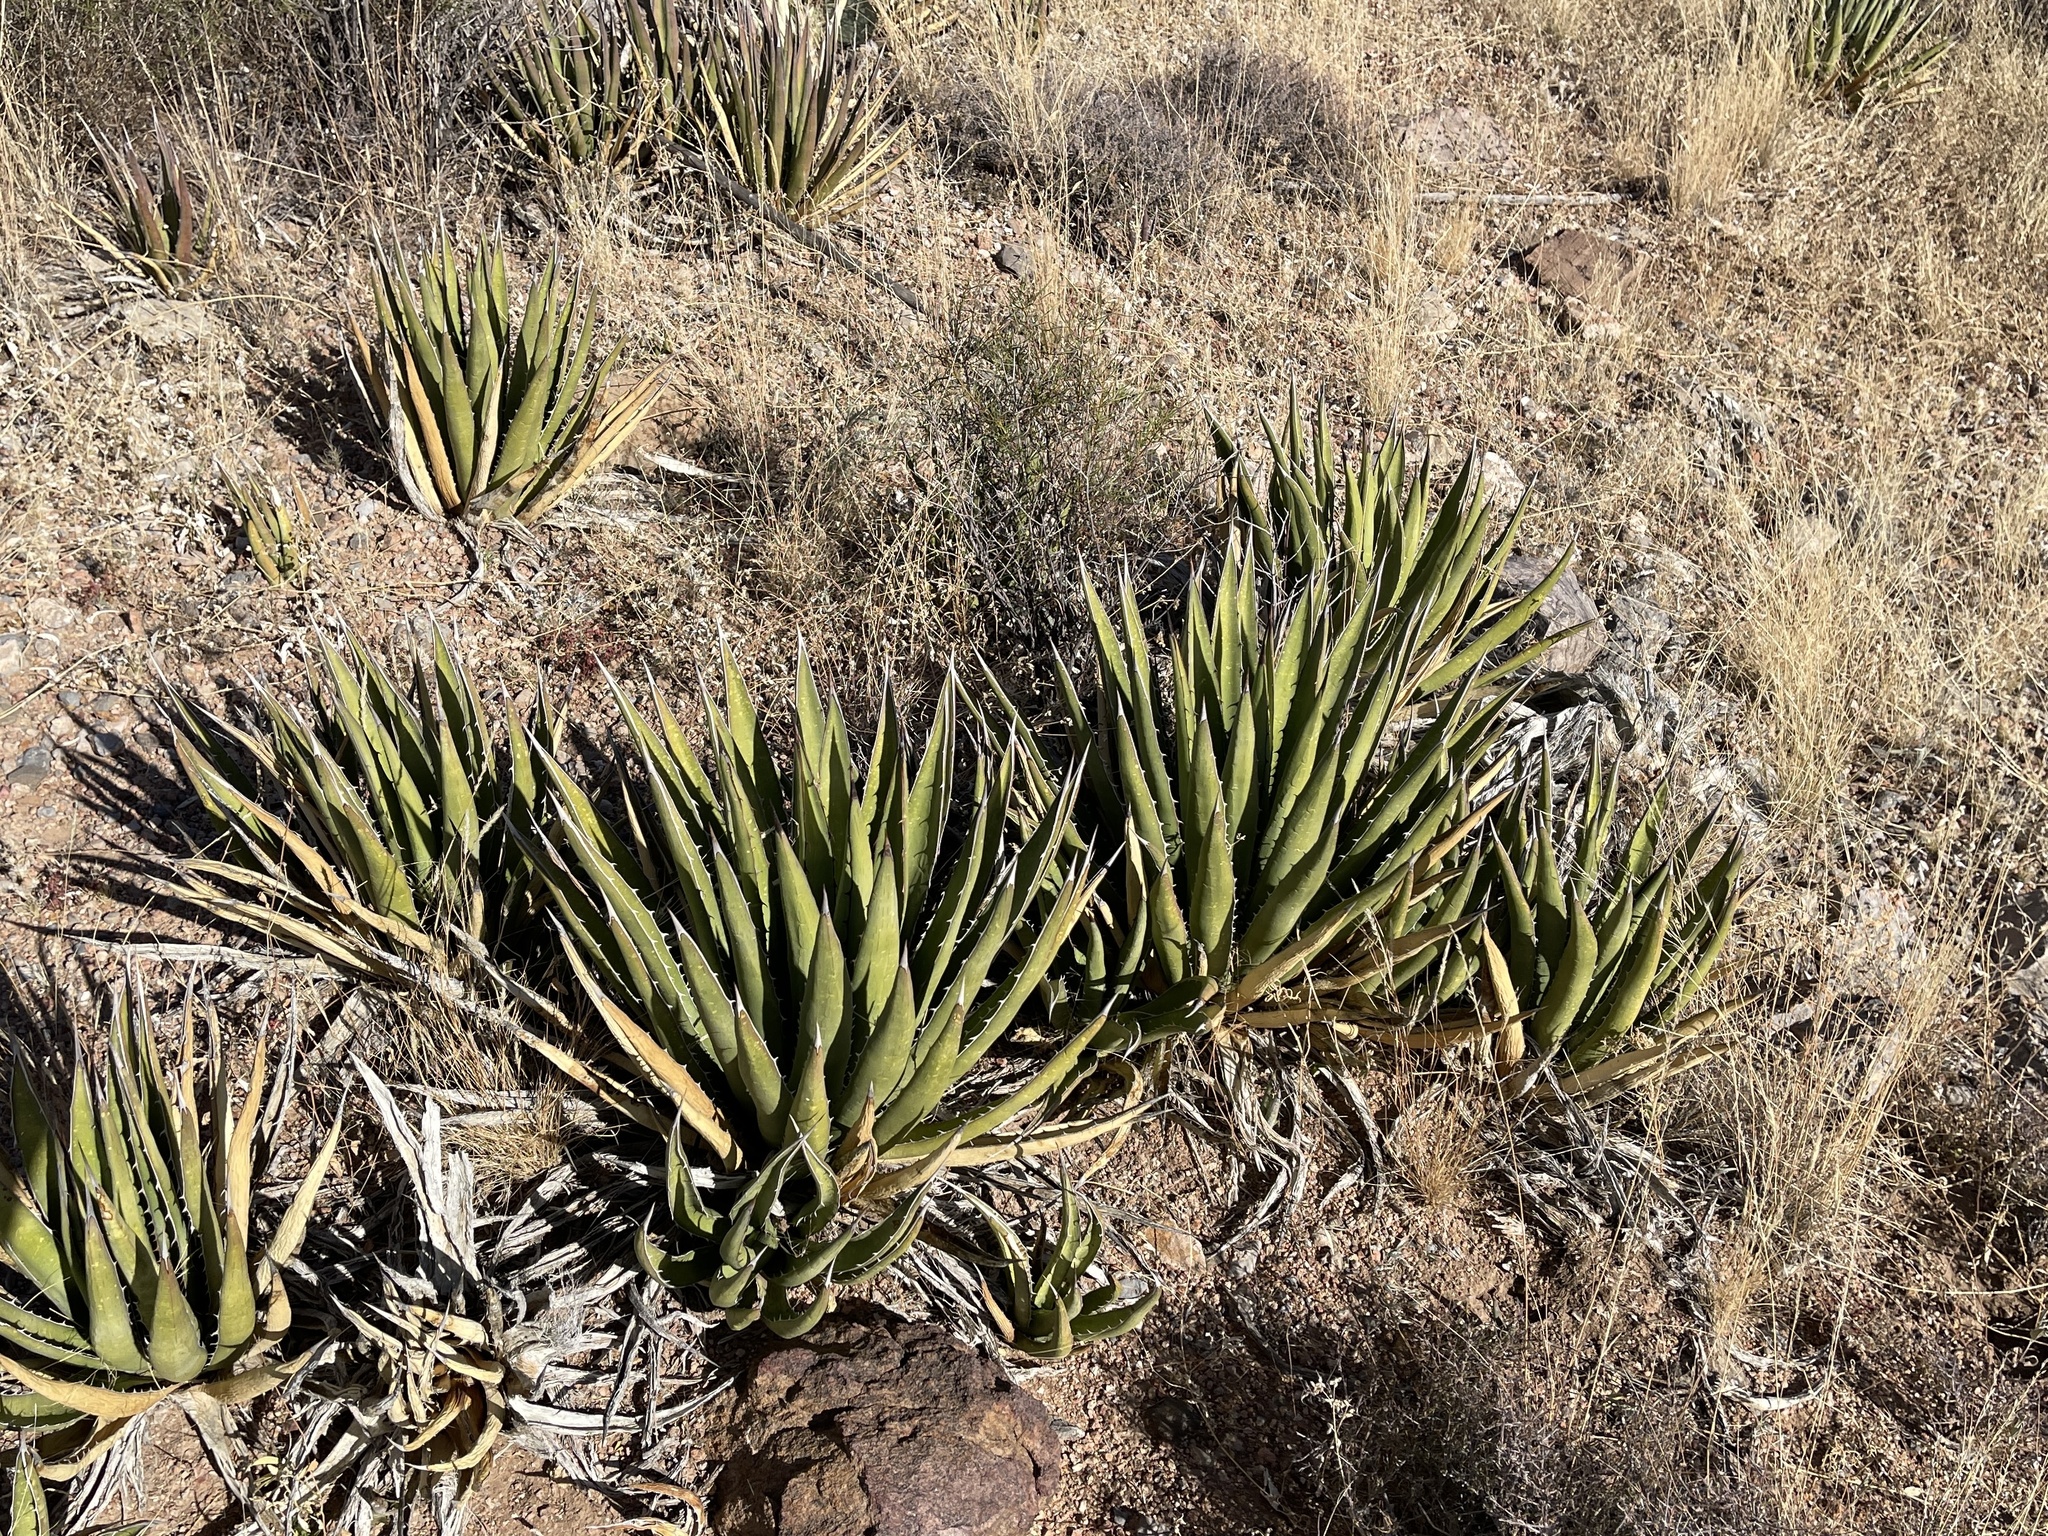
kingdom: Plantae
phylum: Tracheophyta
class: Liliopsida
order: Asparagales
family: Asparagaceae
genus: Agave
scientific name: Agave lechuguilla
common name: Lecheguilla agave
